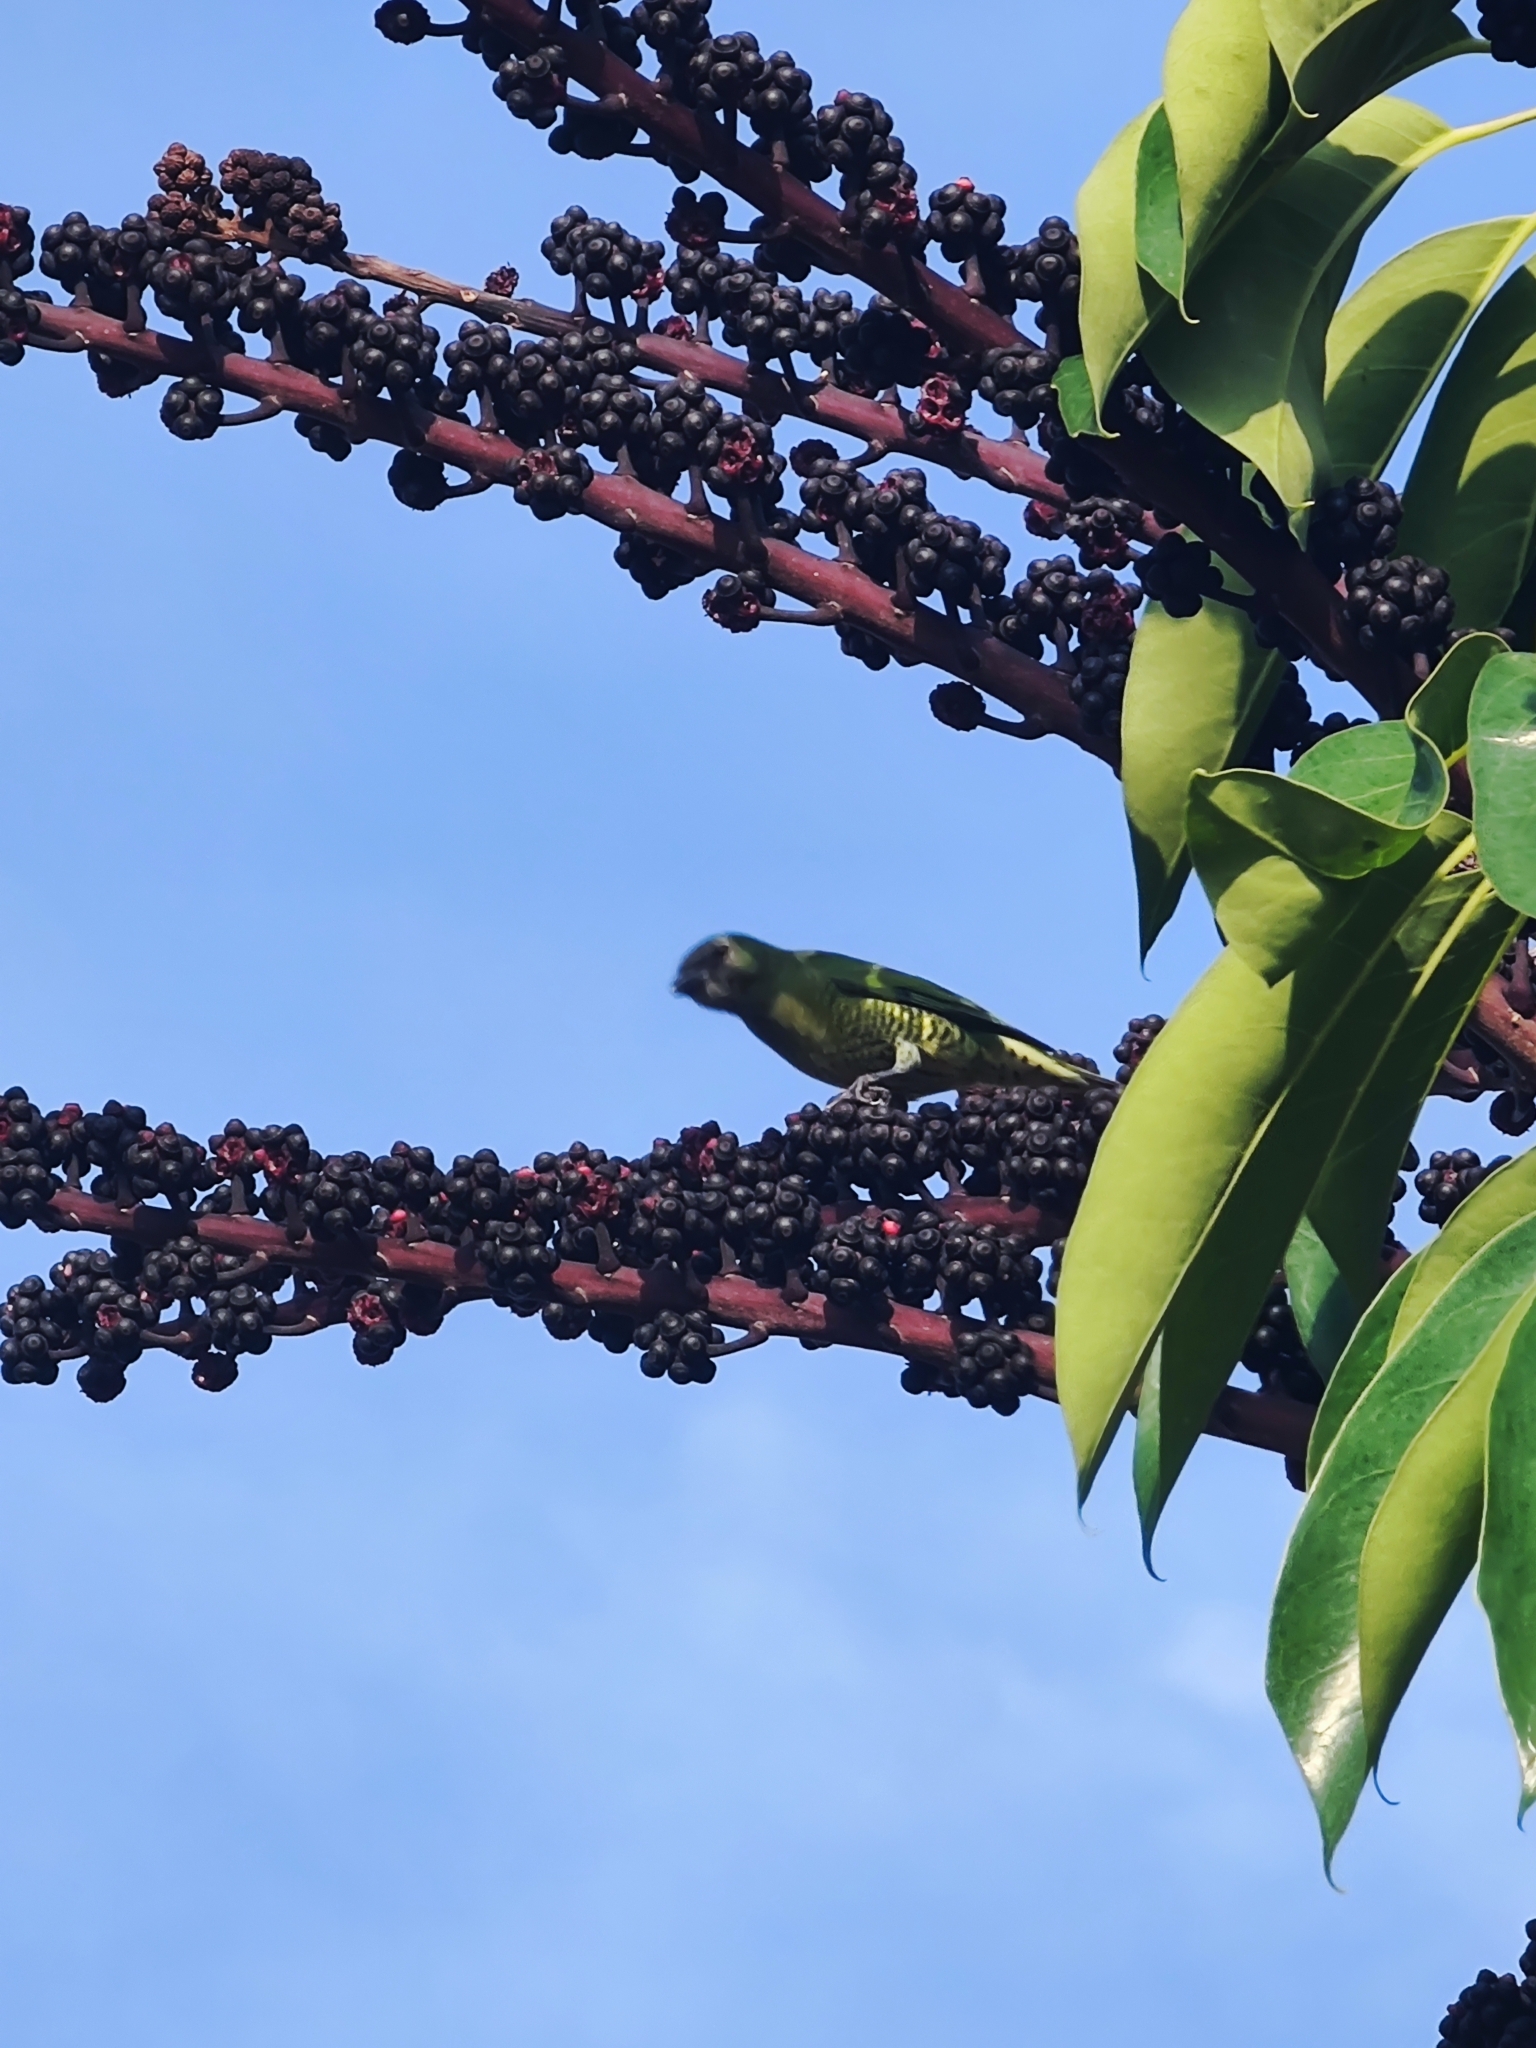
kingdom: Animalia
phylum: Chordata
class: Aves
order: Passeriformes
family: Thraupidae
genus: Tersina
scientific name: Tersina viridis
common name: Swallow tanager
